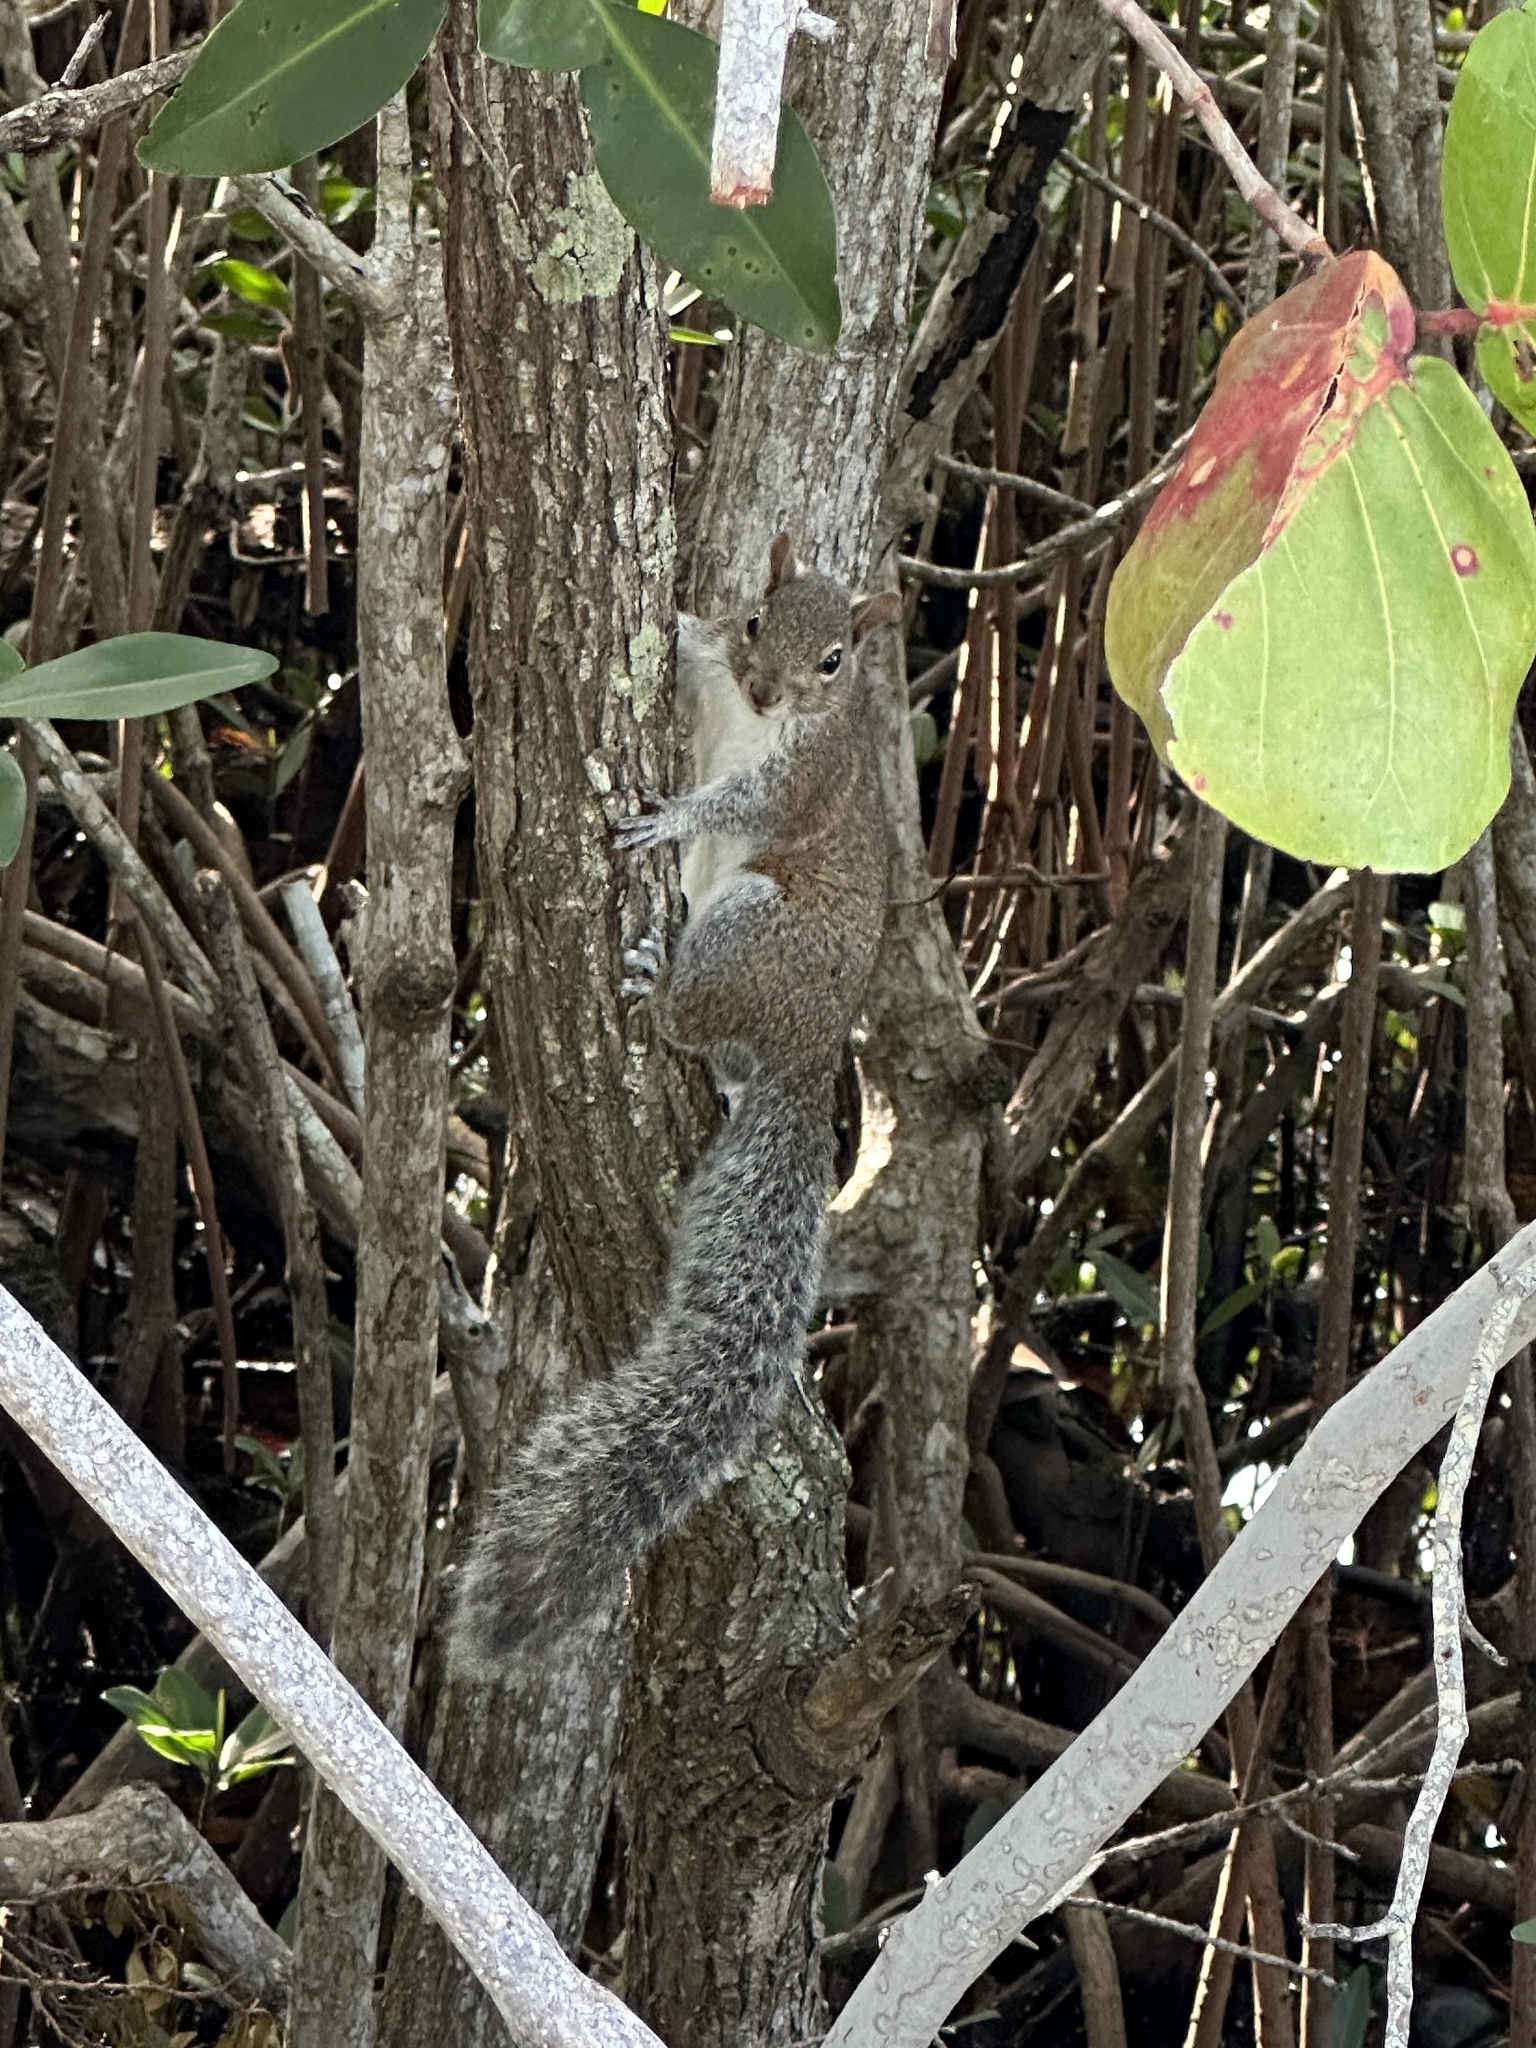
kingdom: Animalia
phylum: Chordata
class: Mammalia
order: Rodentia
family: Sciuridae
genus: Sciurus
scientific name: Sciurus carolinensis
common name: Eastern gray squirrel
